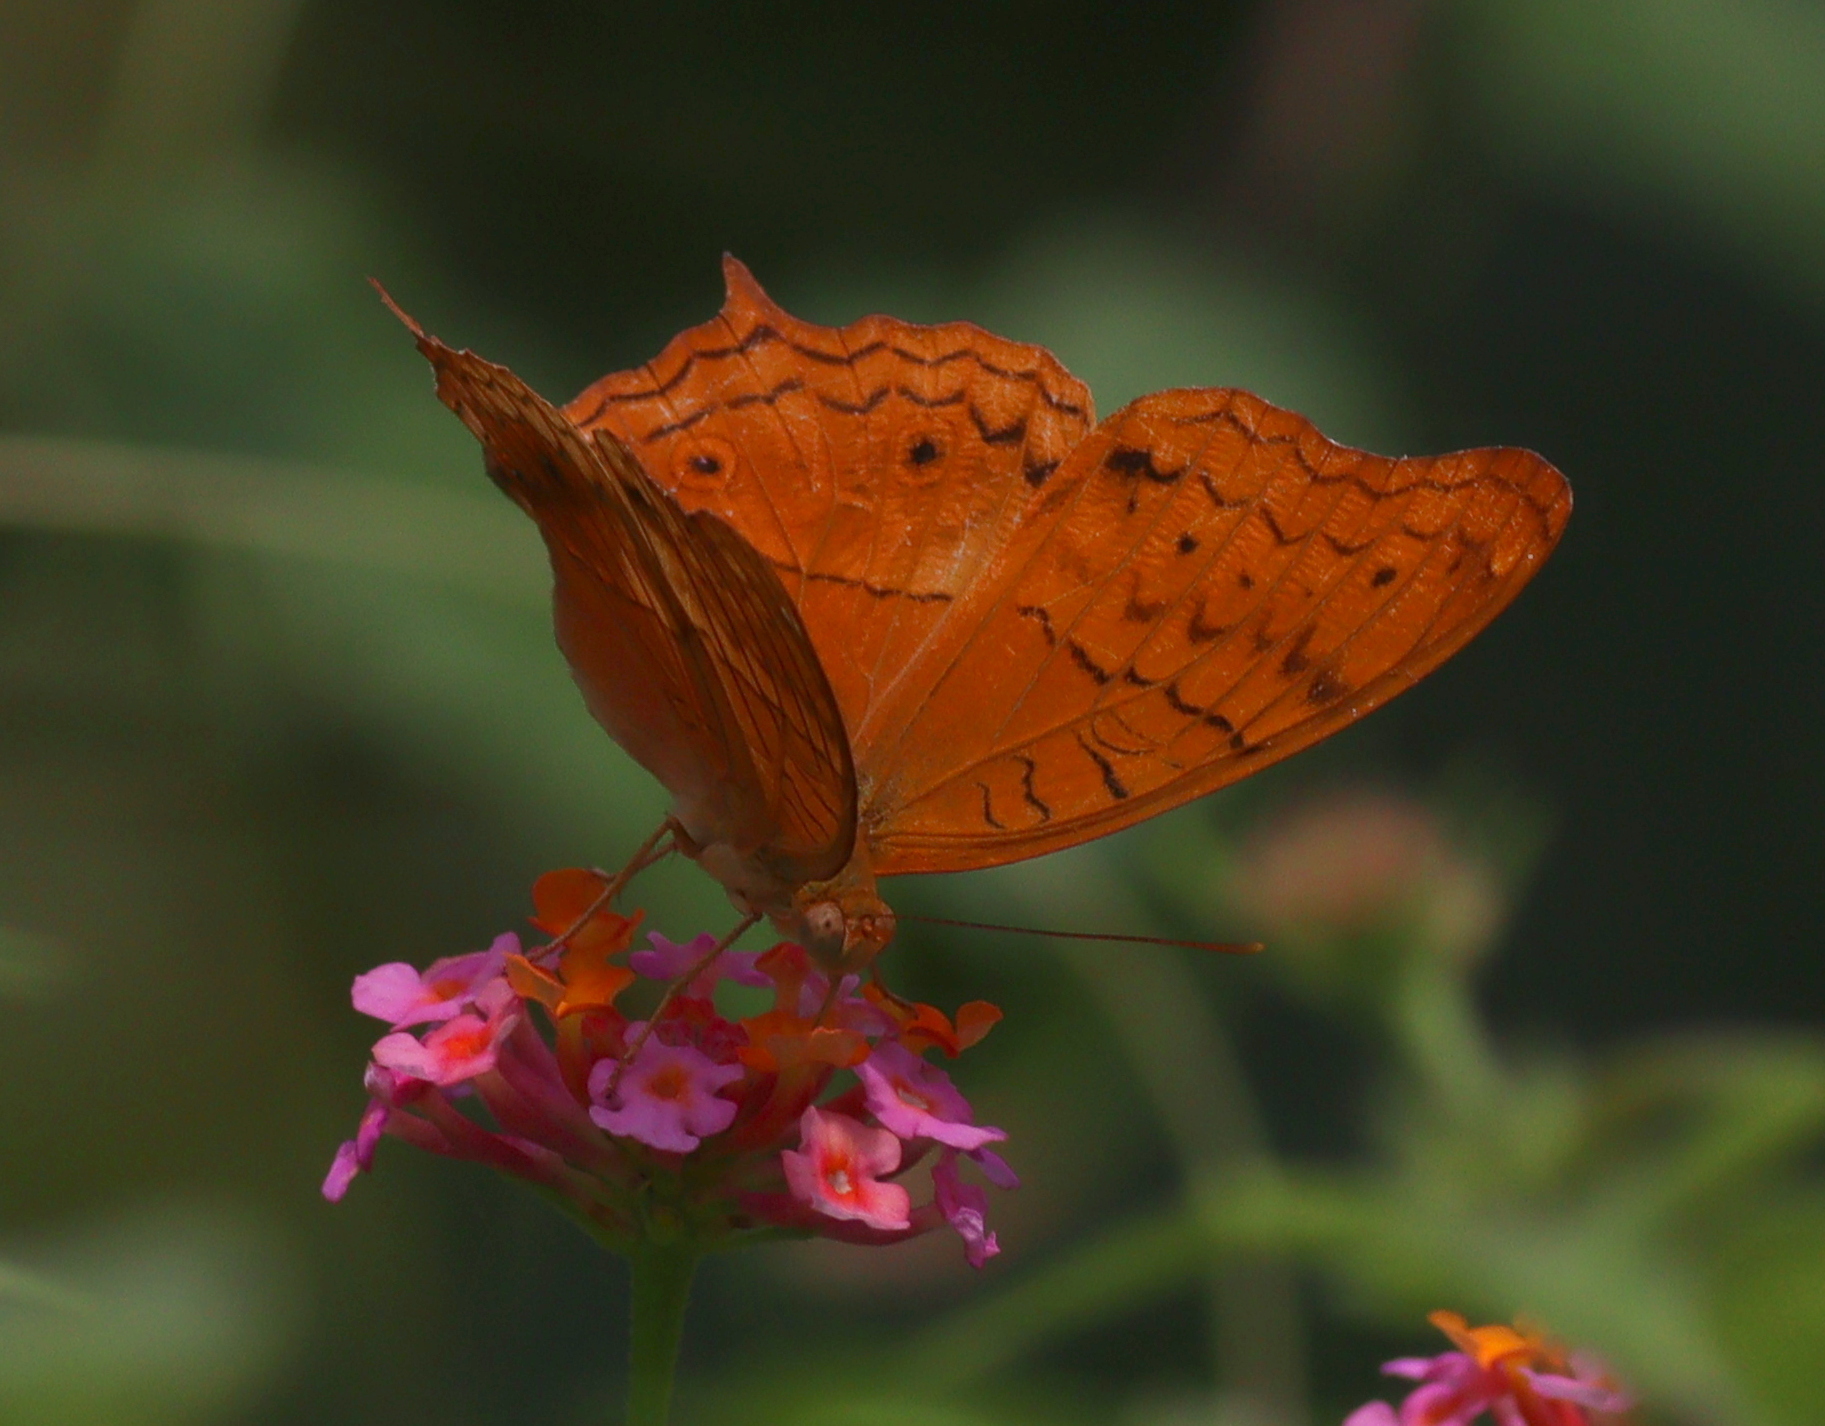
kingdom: Animalia
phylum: Arthropoda
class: Insecta
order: Lepidoptera
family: Nymphalidae
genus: Vindula
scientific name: Vindula deione
